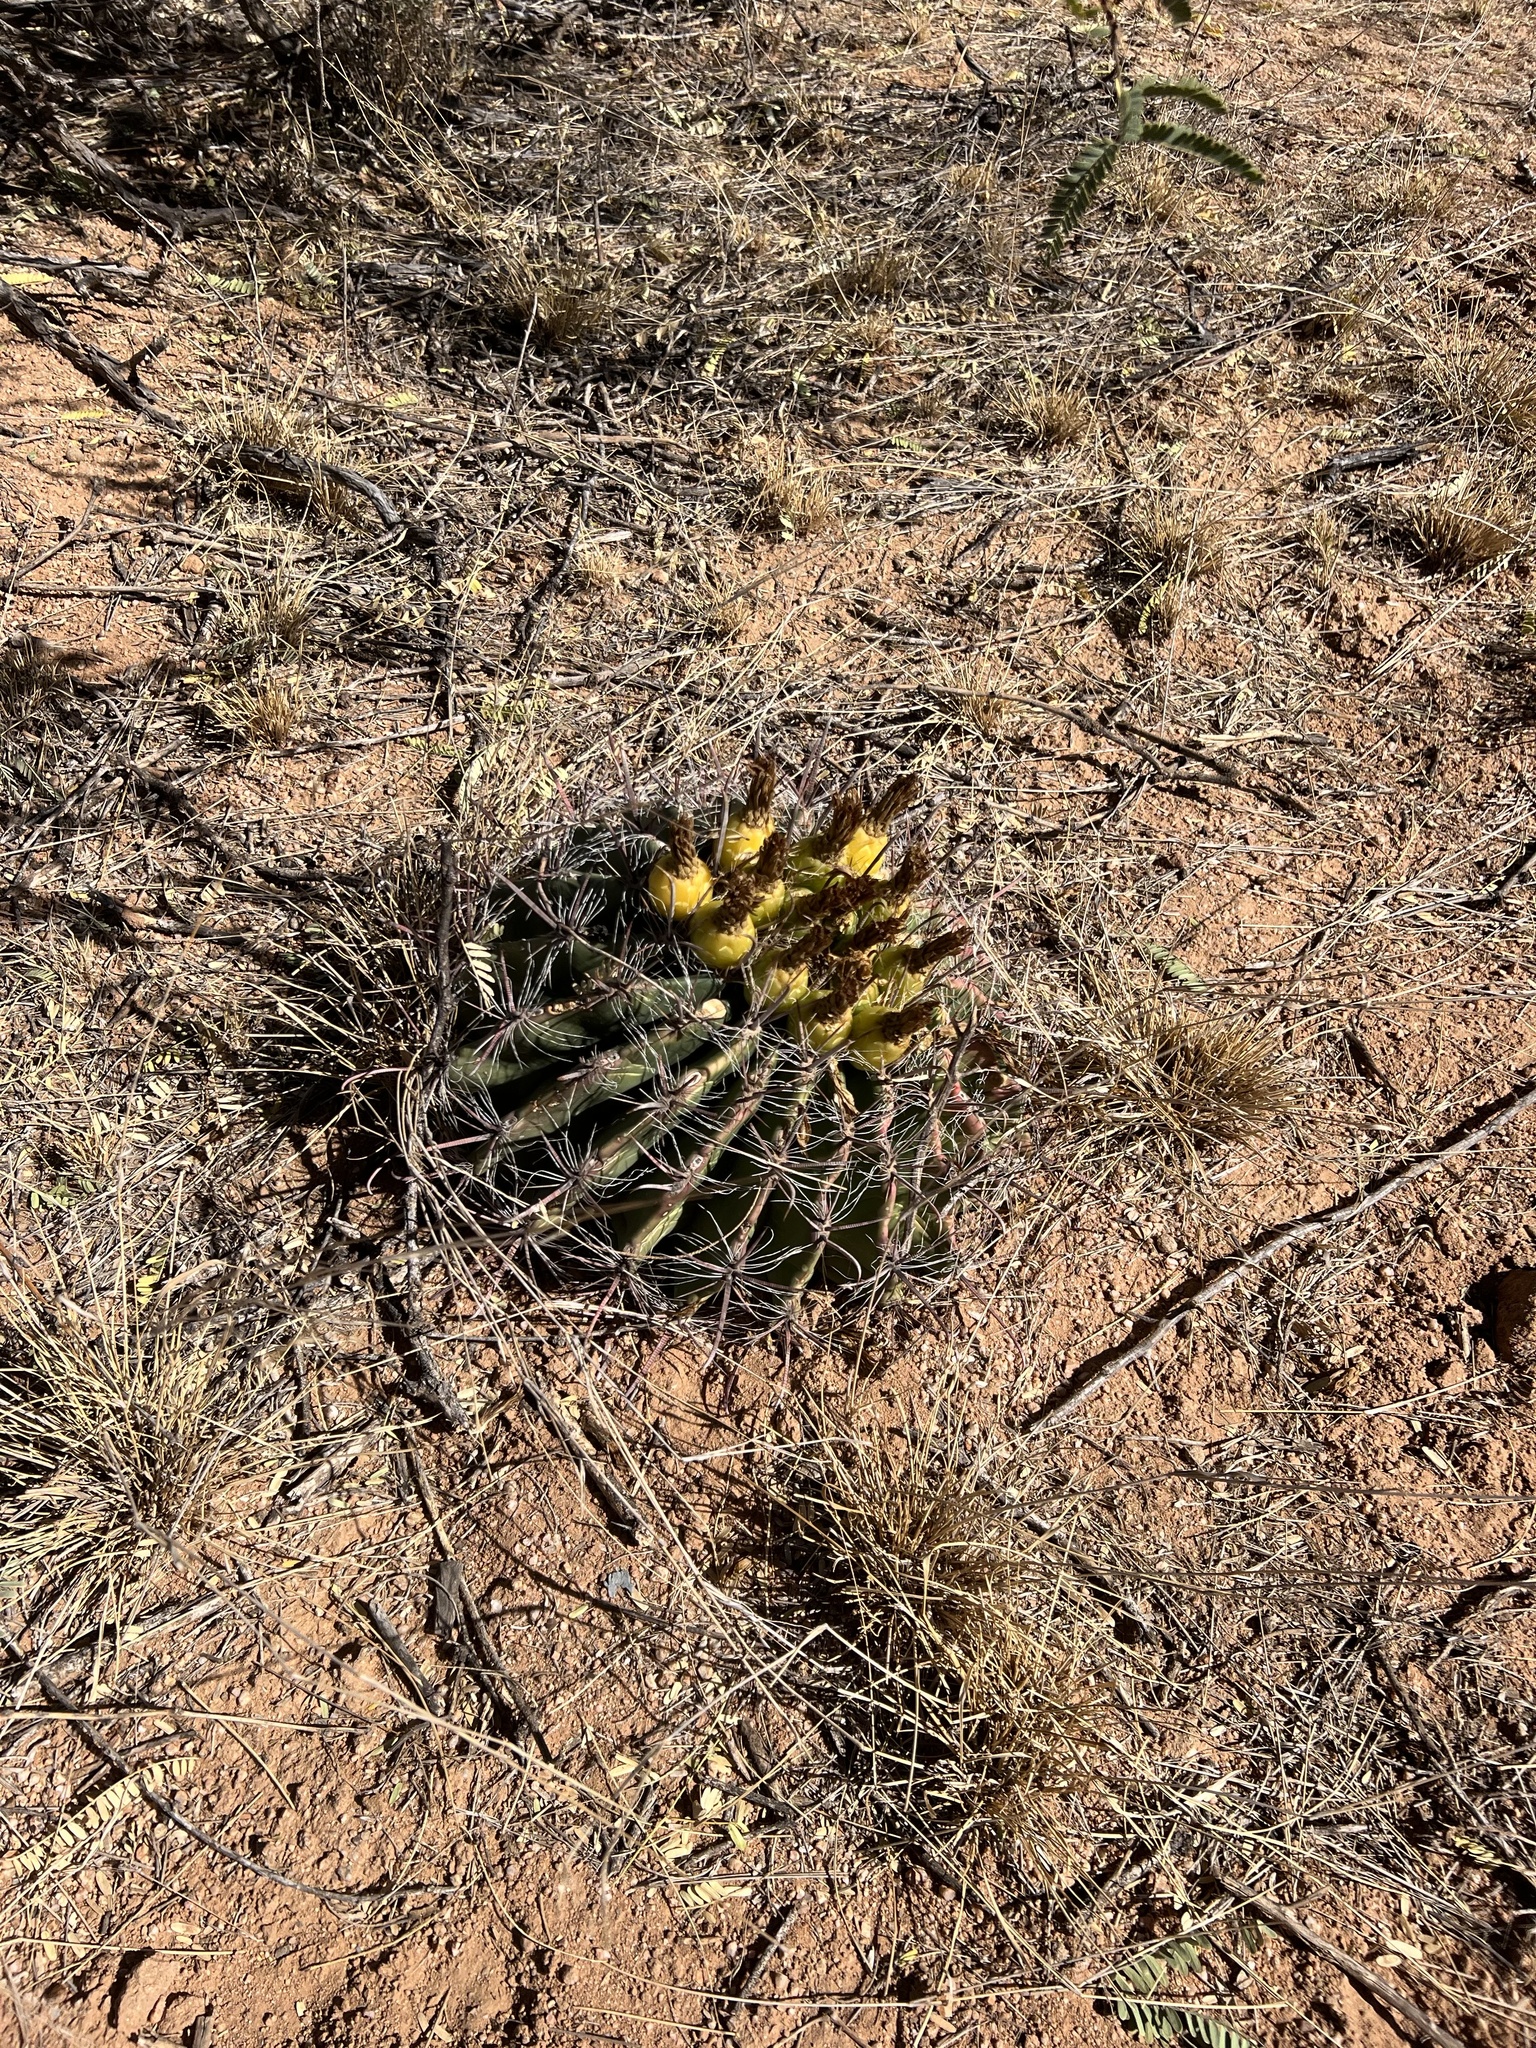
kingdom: Plantae
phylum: Tracheophyta
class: Magnoliopsida
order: Caryophyllales
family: Cactaceae
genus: Ferocactus
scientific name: Ferocactus wislizeni
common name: Candy barrel cactus
